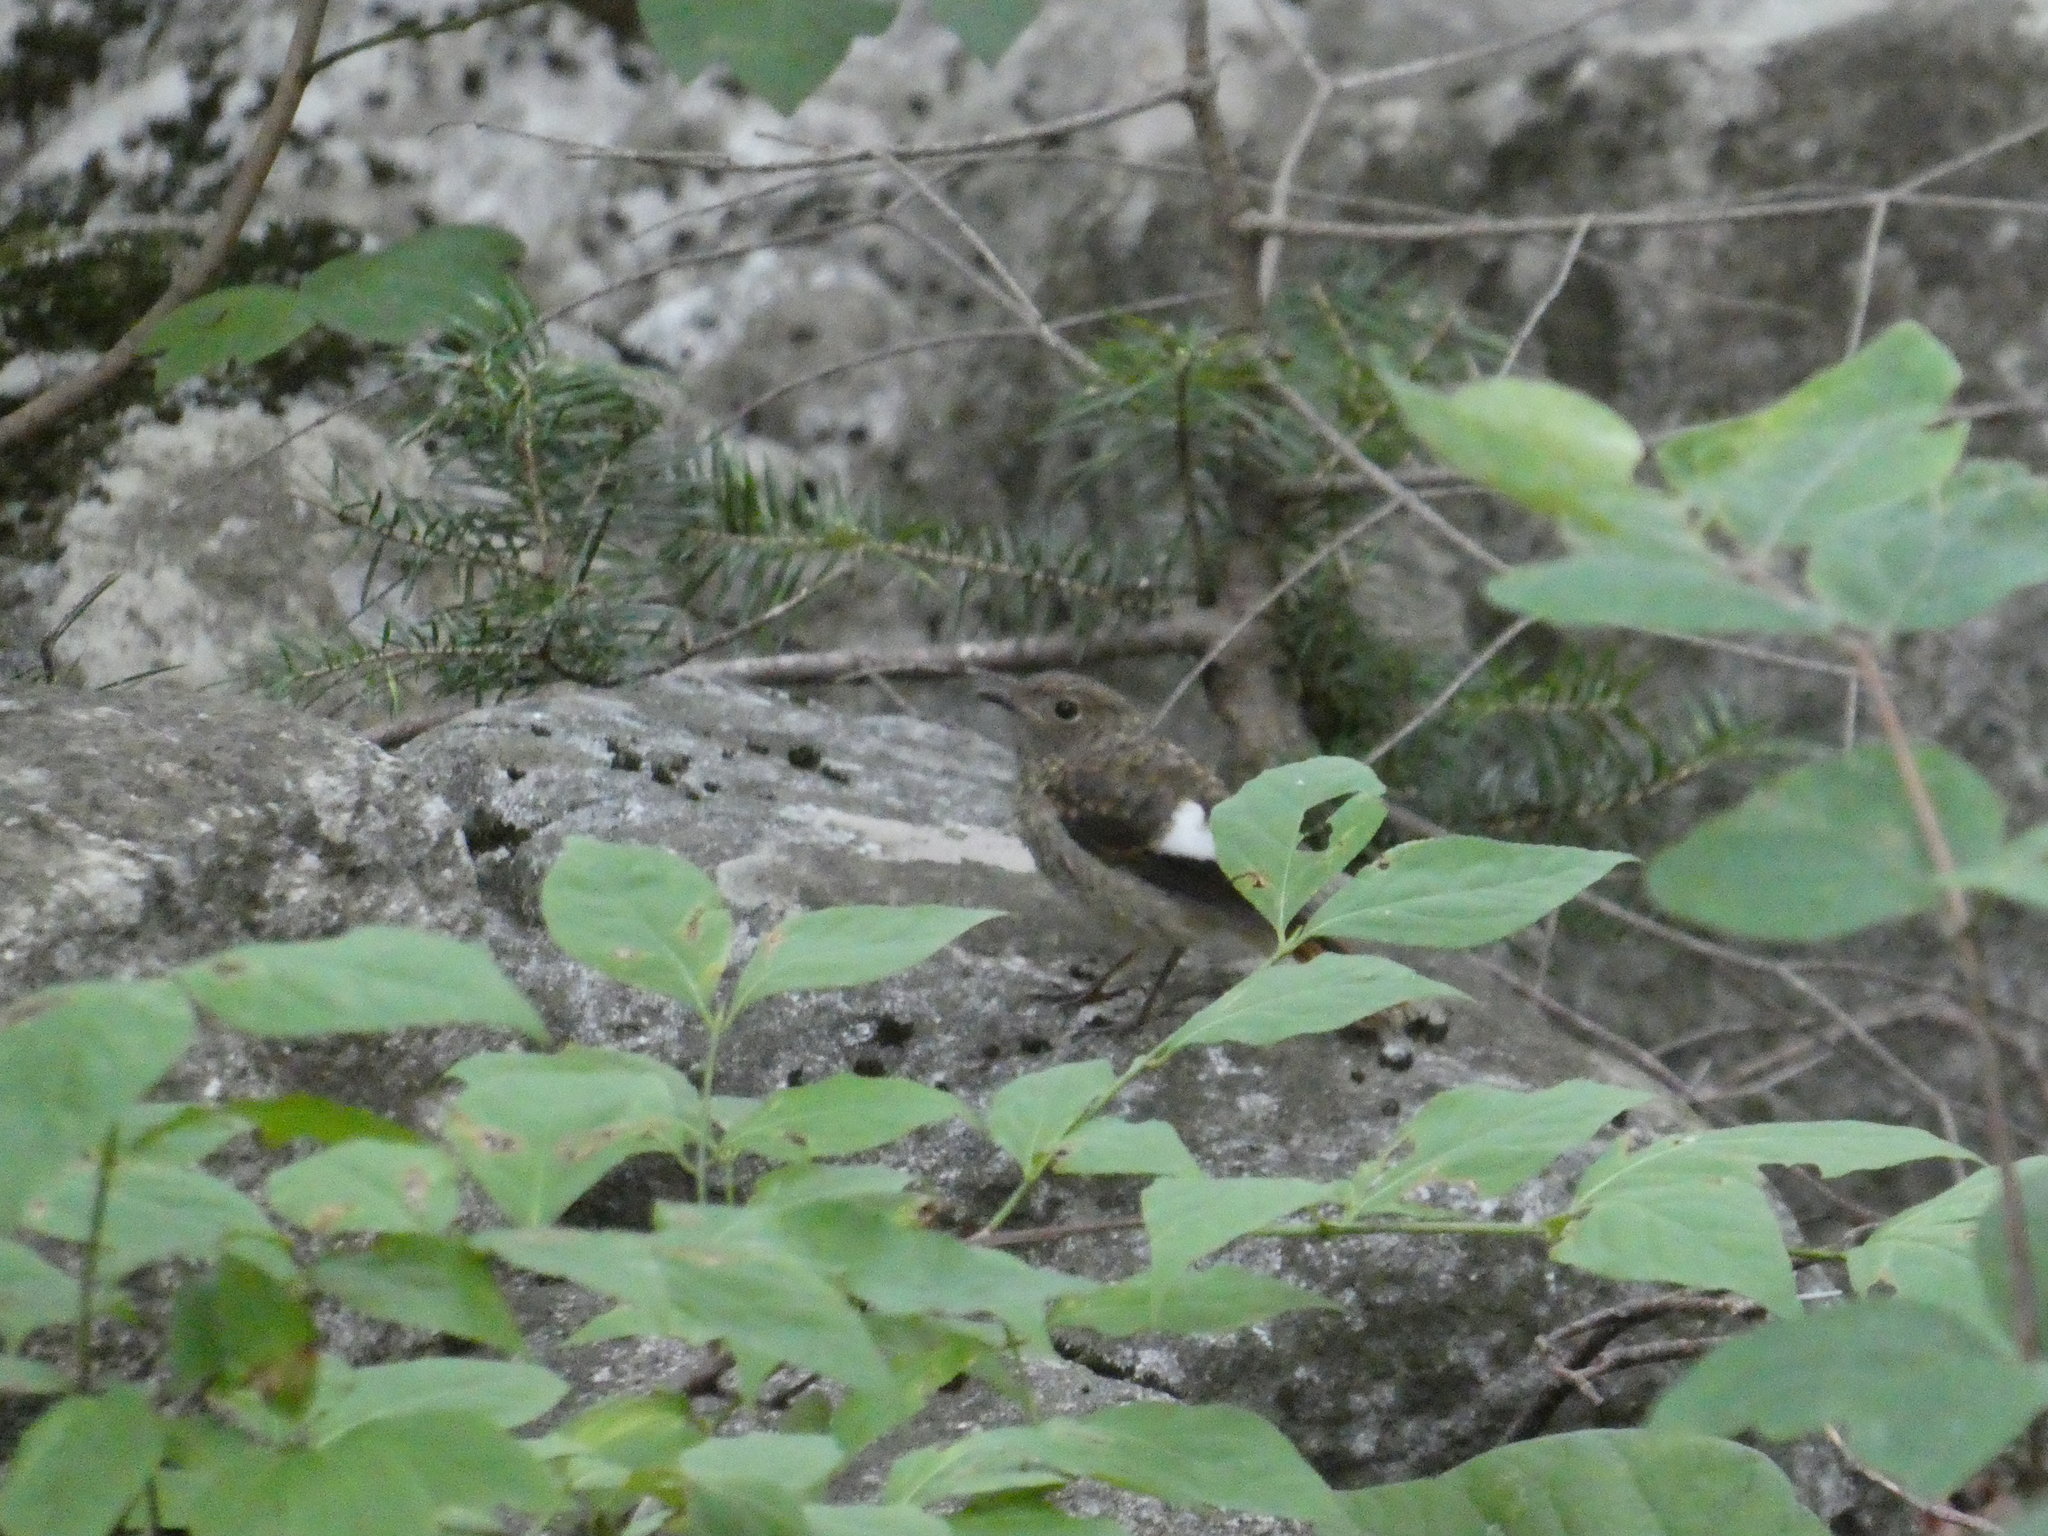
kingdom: Animalia
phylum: Chordata
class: Aves
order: Passeriformes
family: Muscicapidae
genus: Phoenicurus
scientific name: Phoenicurus auroreus
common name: Daurian redstart
